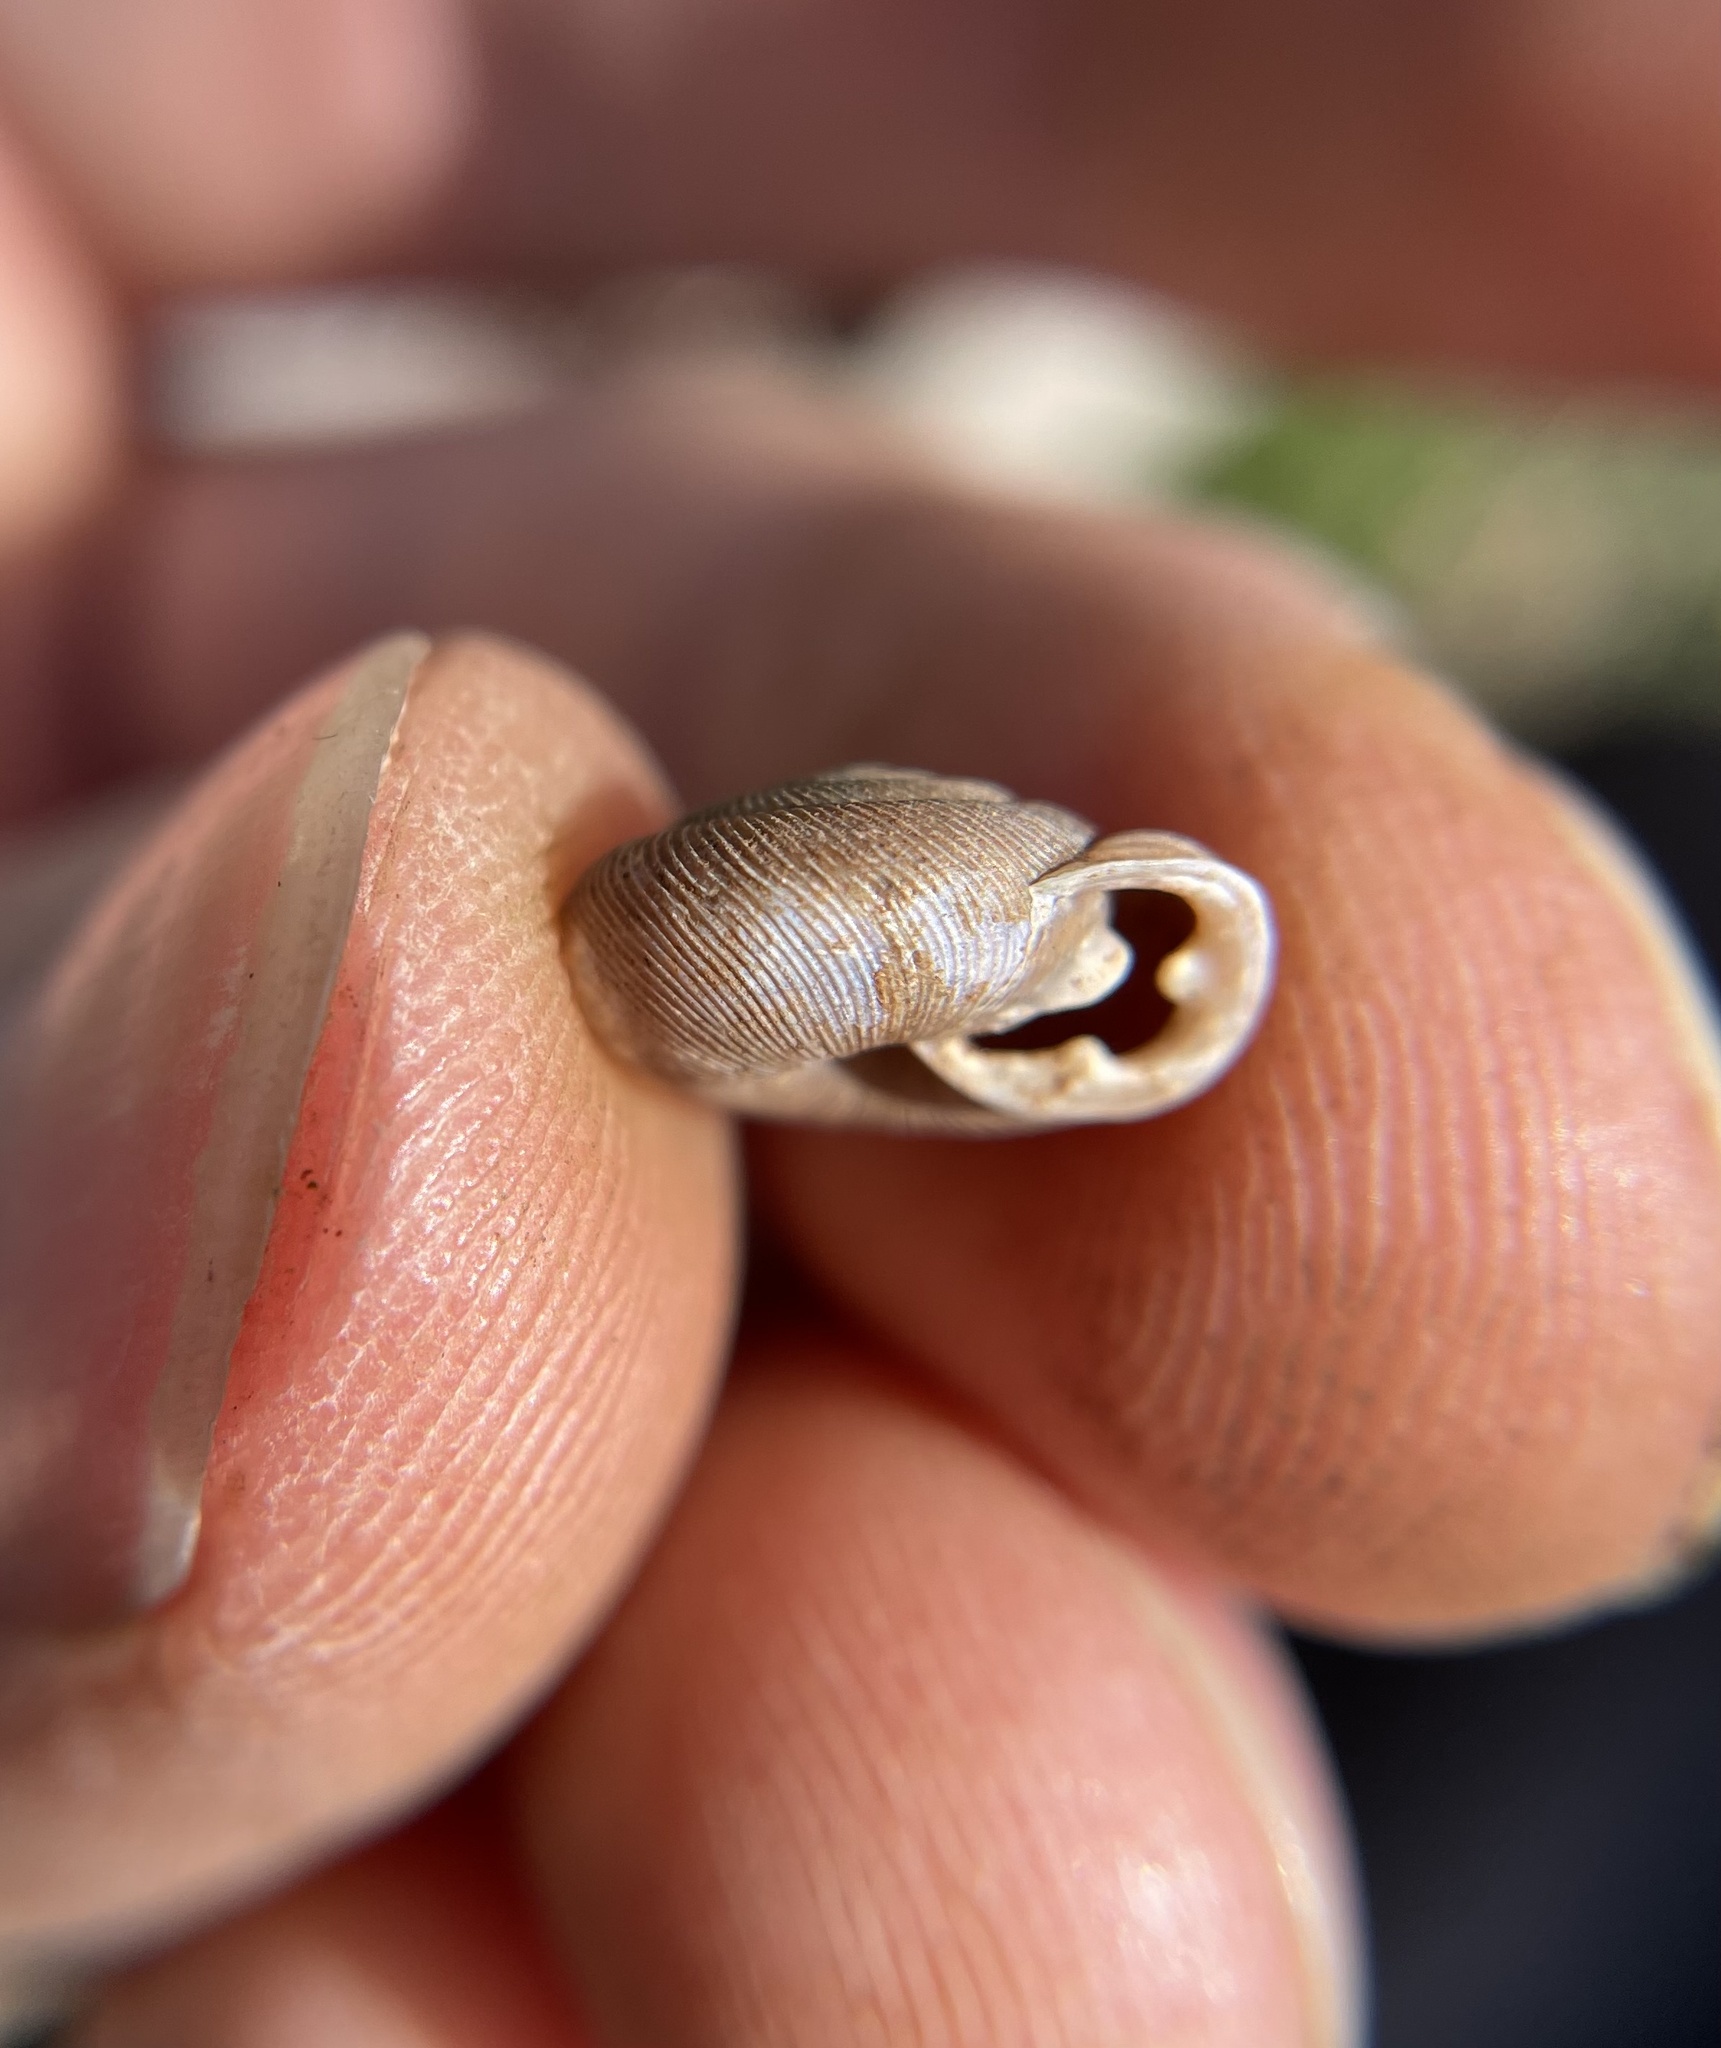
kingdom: Animalia
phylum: Mollusca
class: Gastropoda
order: Stylommatophora
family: Polygyridae
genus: Triodopsis
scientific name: Triodopsis hopetonensis
